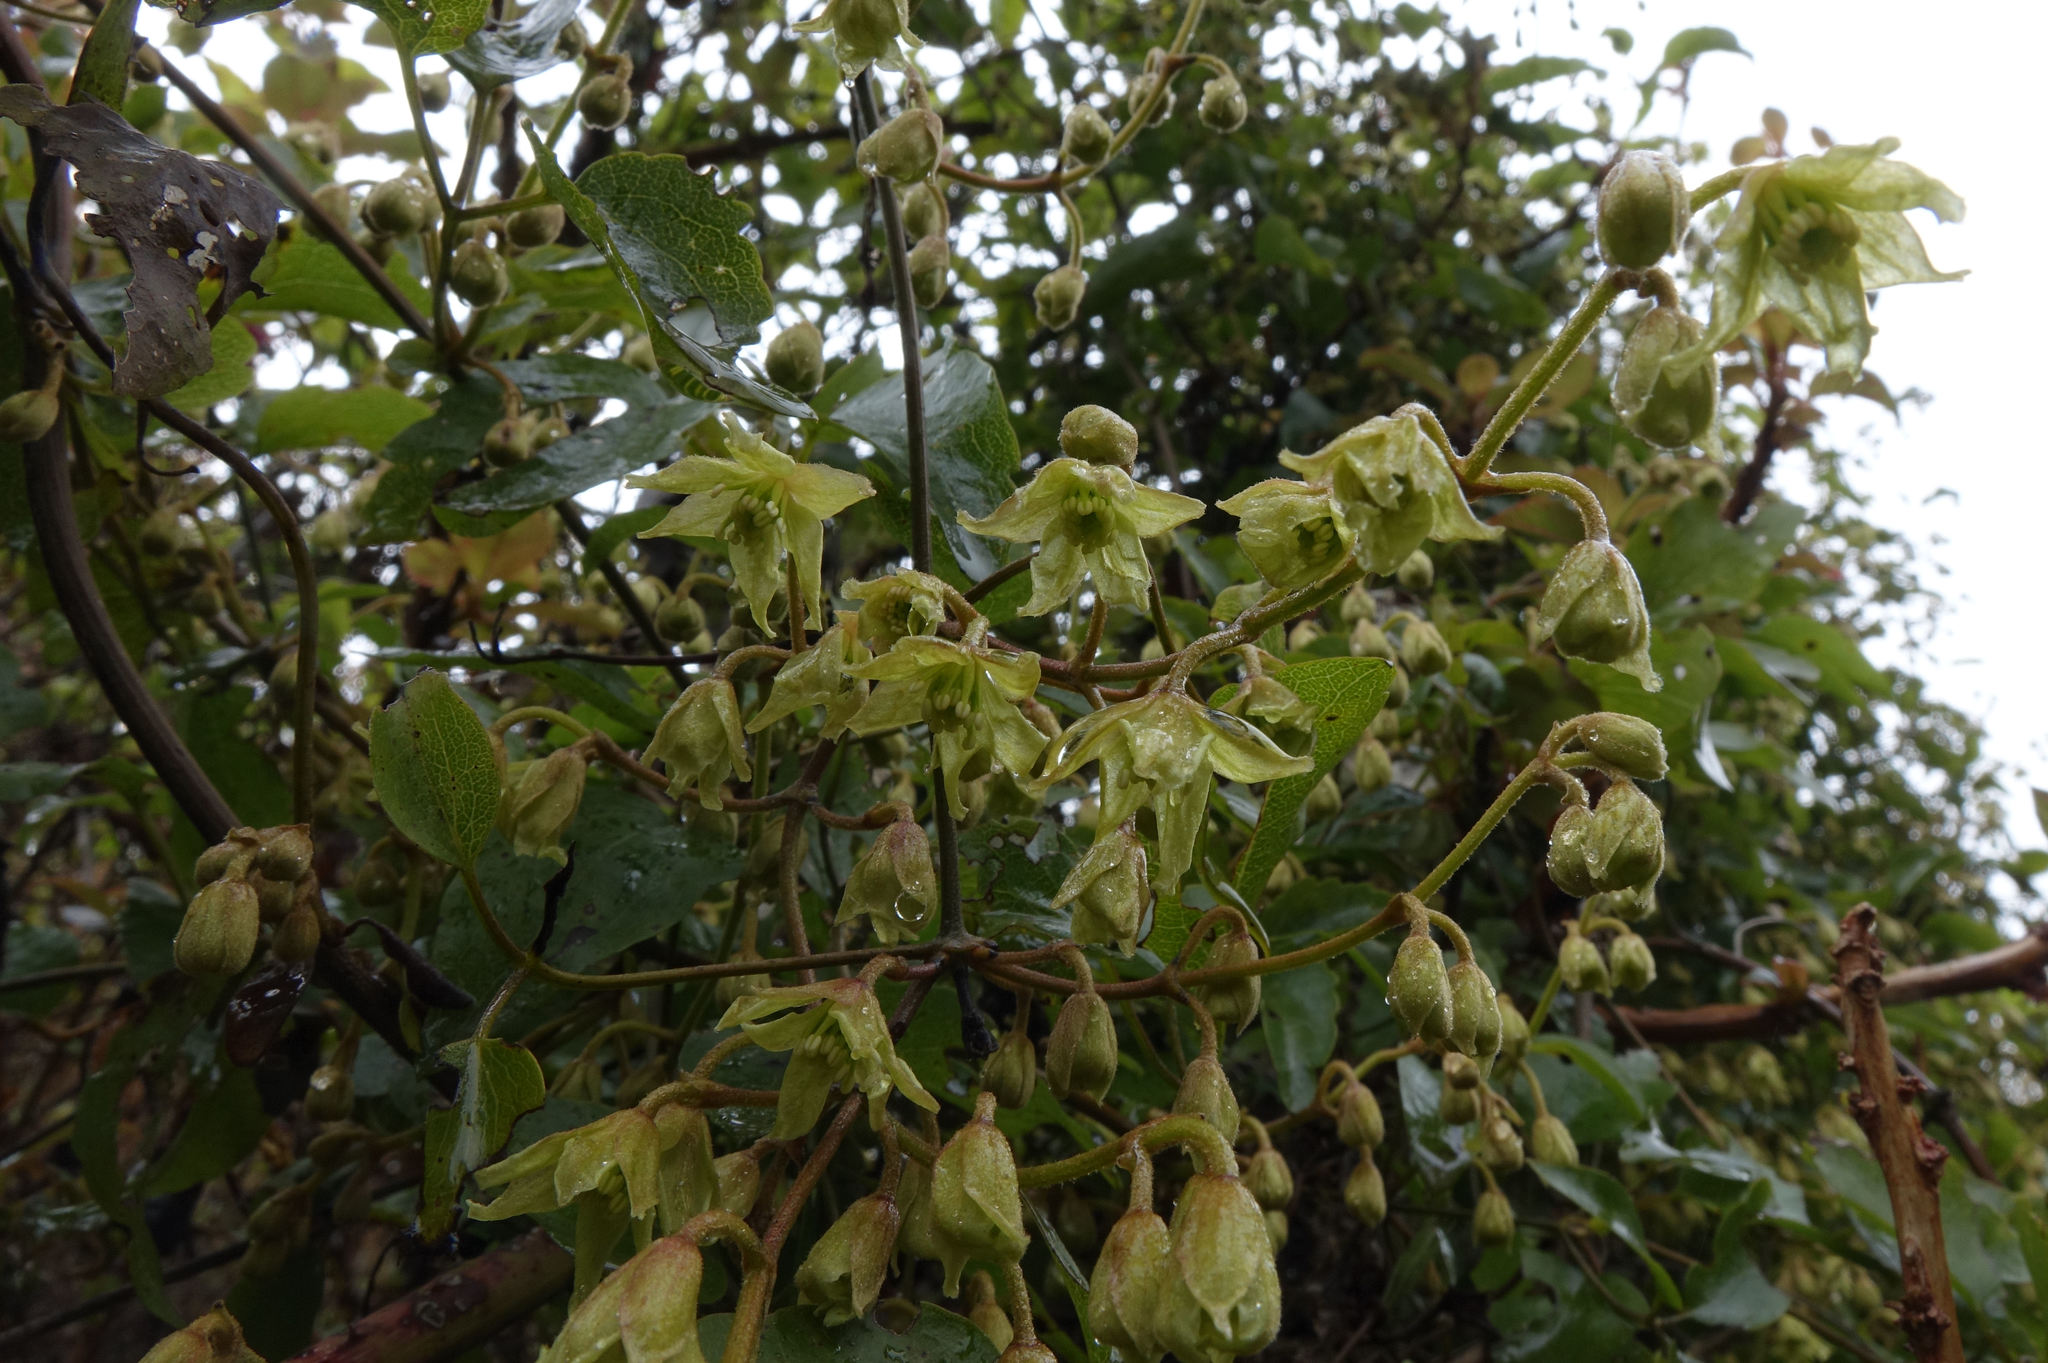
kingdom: Plantae
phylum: Tracheophyta
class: Magnoliopsida
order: Ranunculales
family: Ranunculaceae
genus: Clematis
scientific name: Clematis foetida
